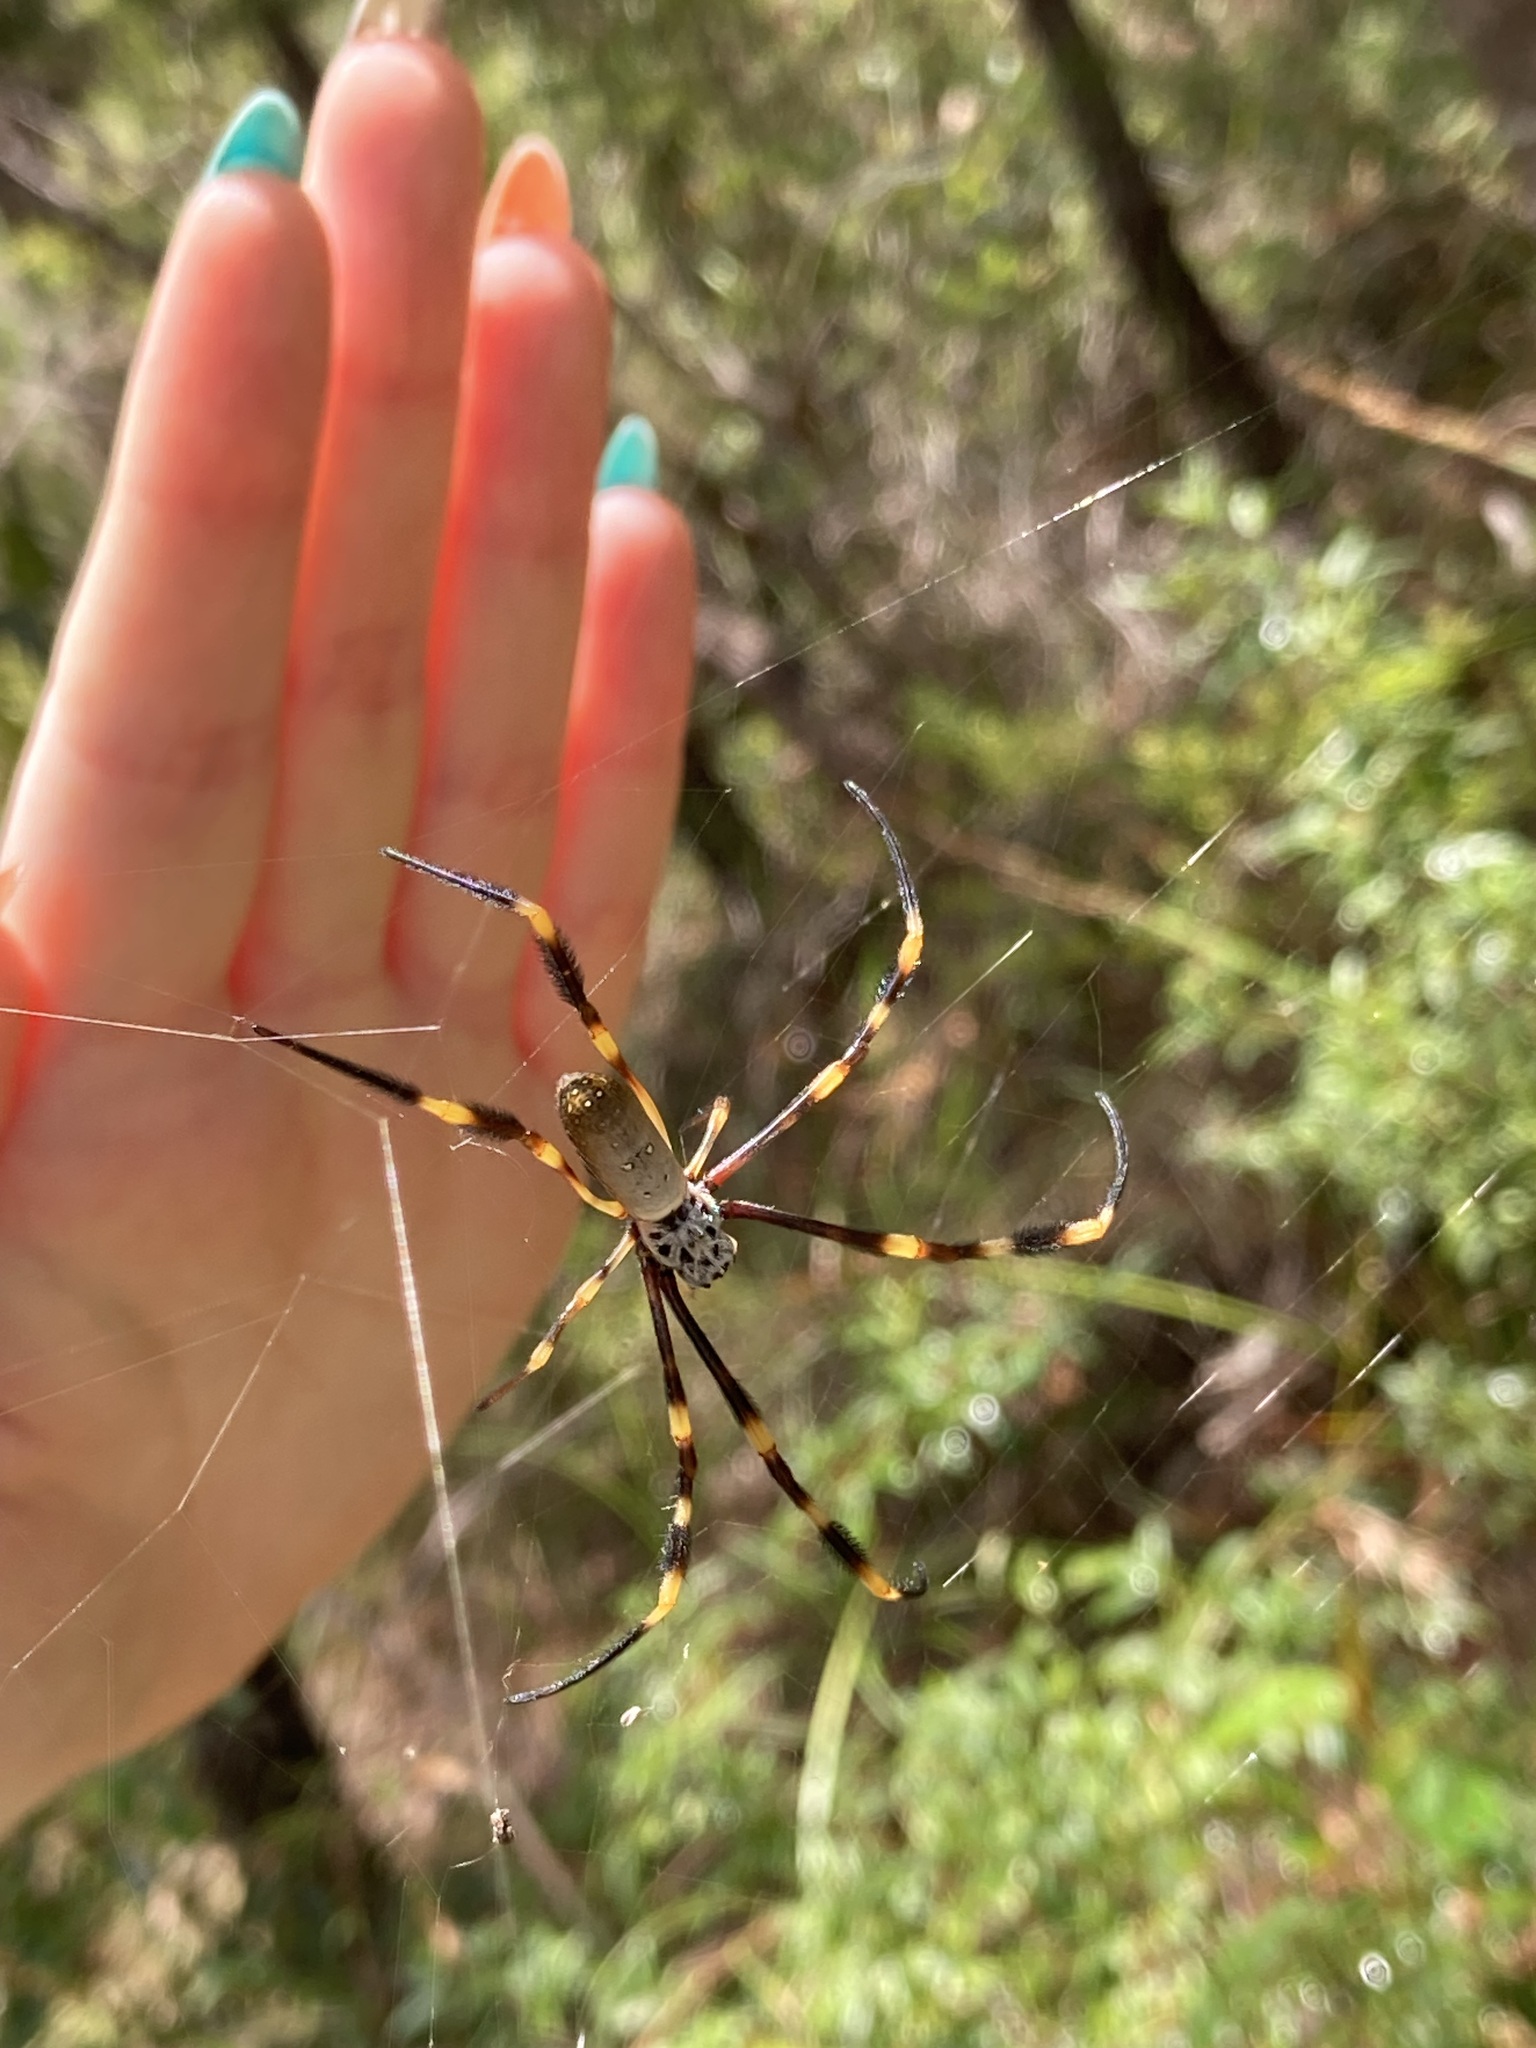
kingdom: Animalia
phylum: Arthropoda
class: Arachnida
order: Araneae
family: Araneidae
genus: Trichonephila
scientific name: Trichonephila plumipes
